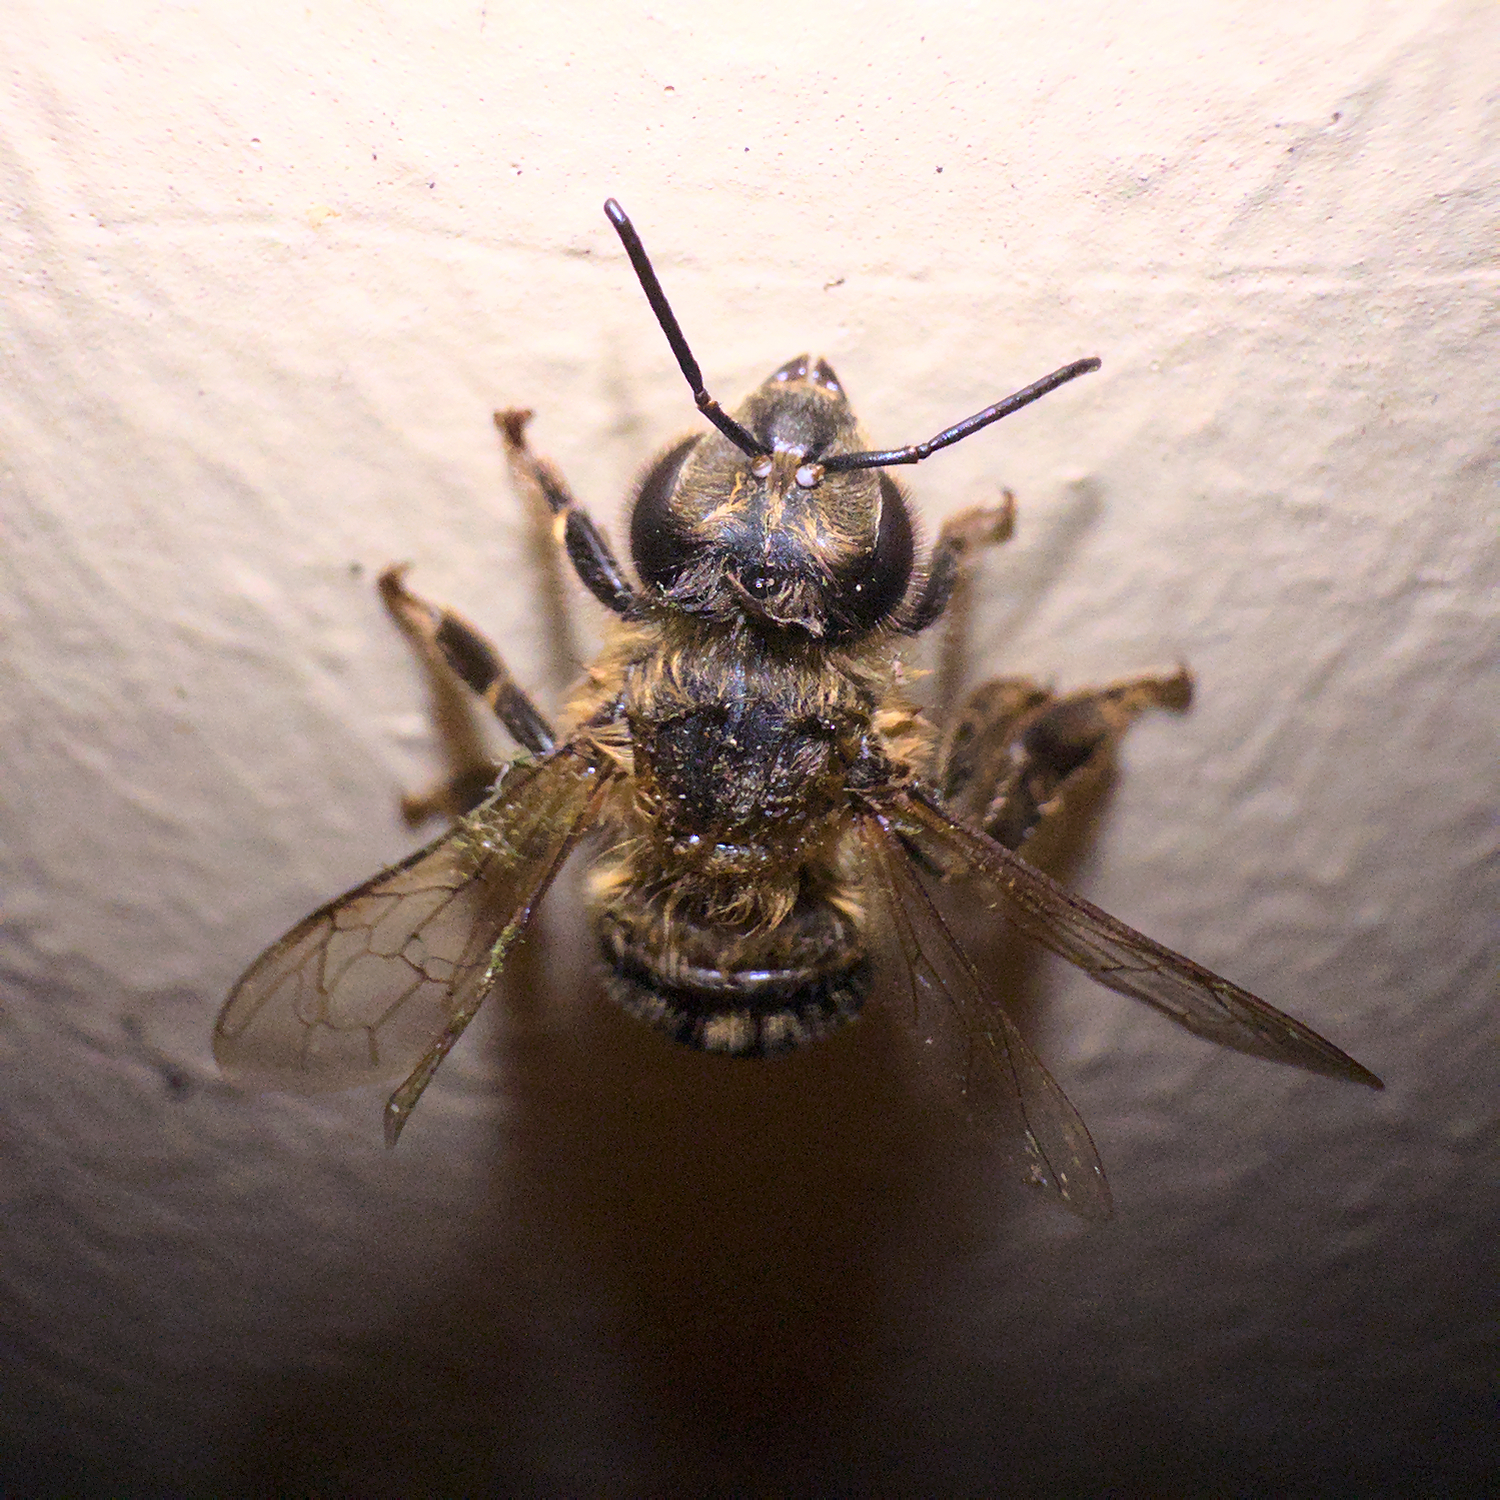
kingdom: Animalia
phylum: Arthropoda
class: Insecta
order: Hymenoptera
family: Apidae
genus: Apis
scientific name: Apis mellifera
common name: Honey bee
